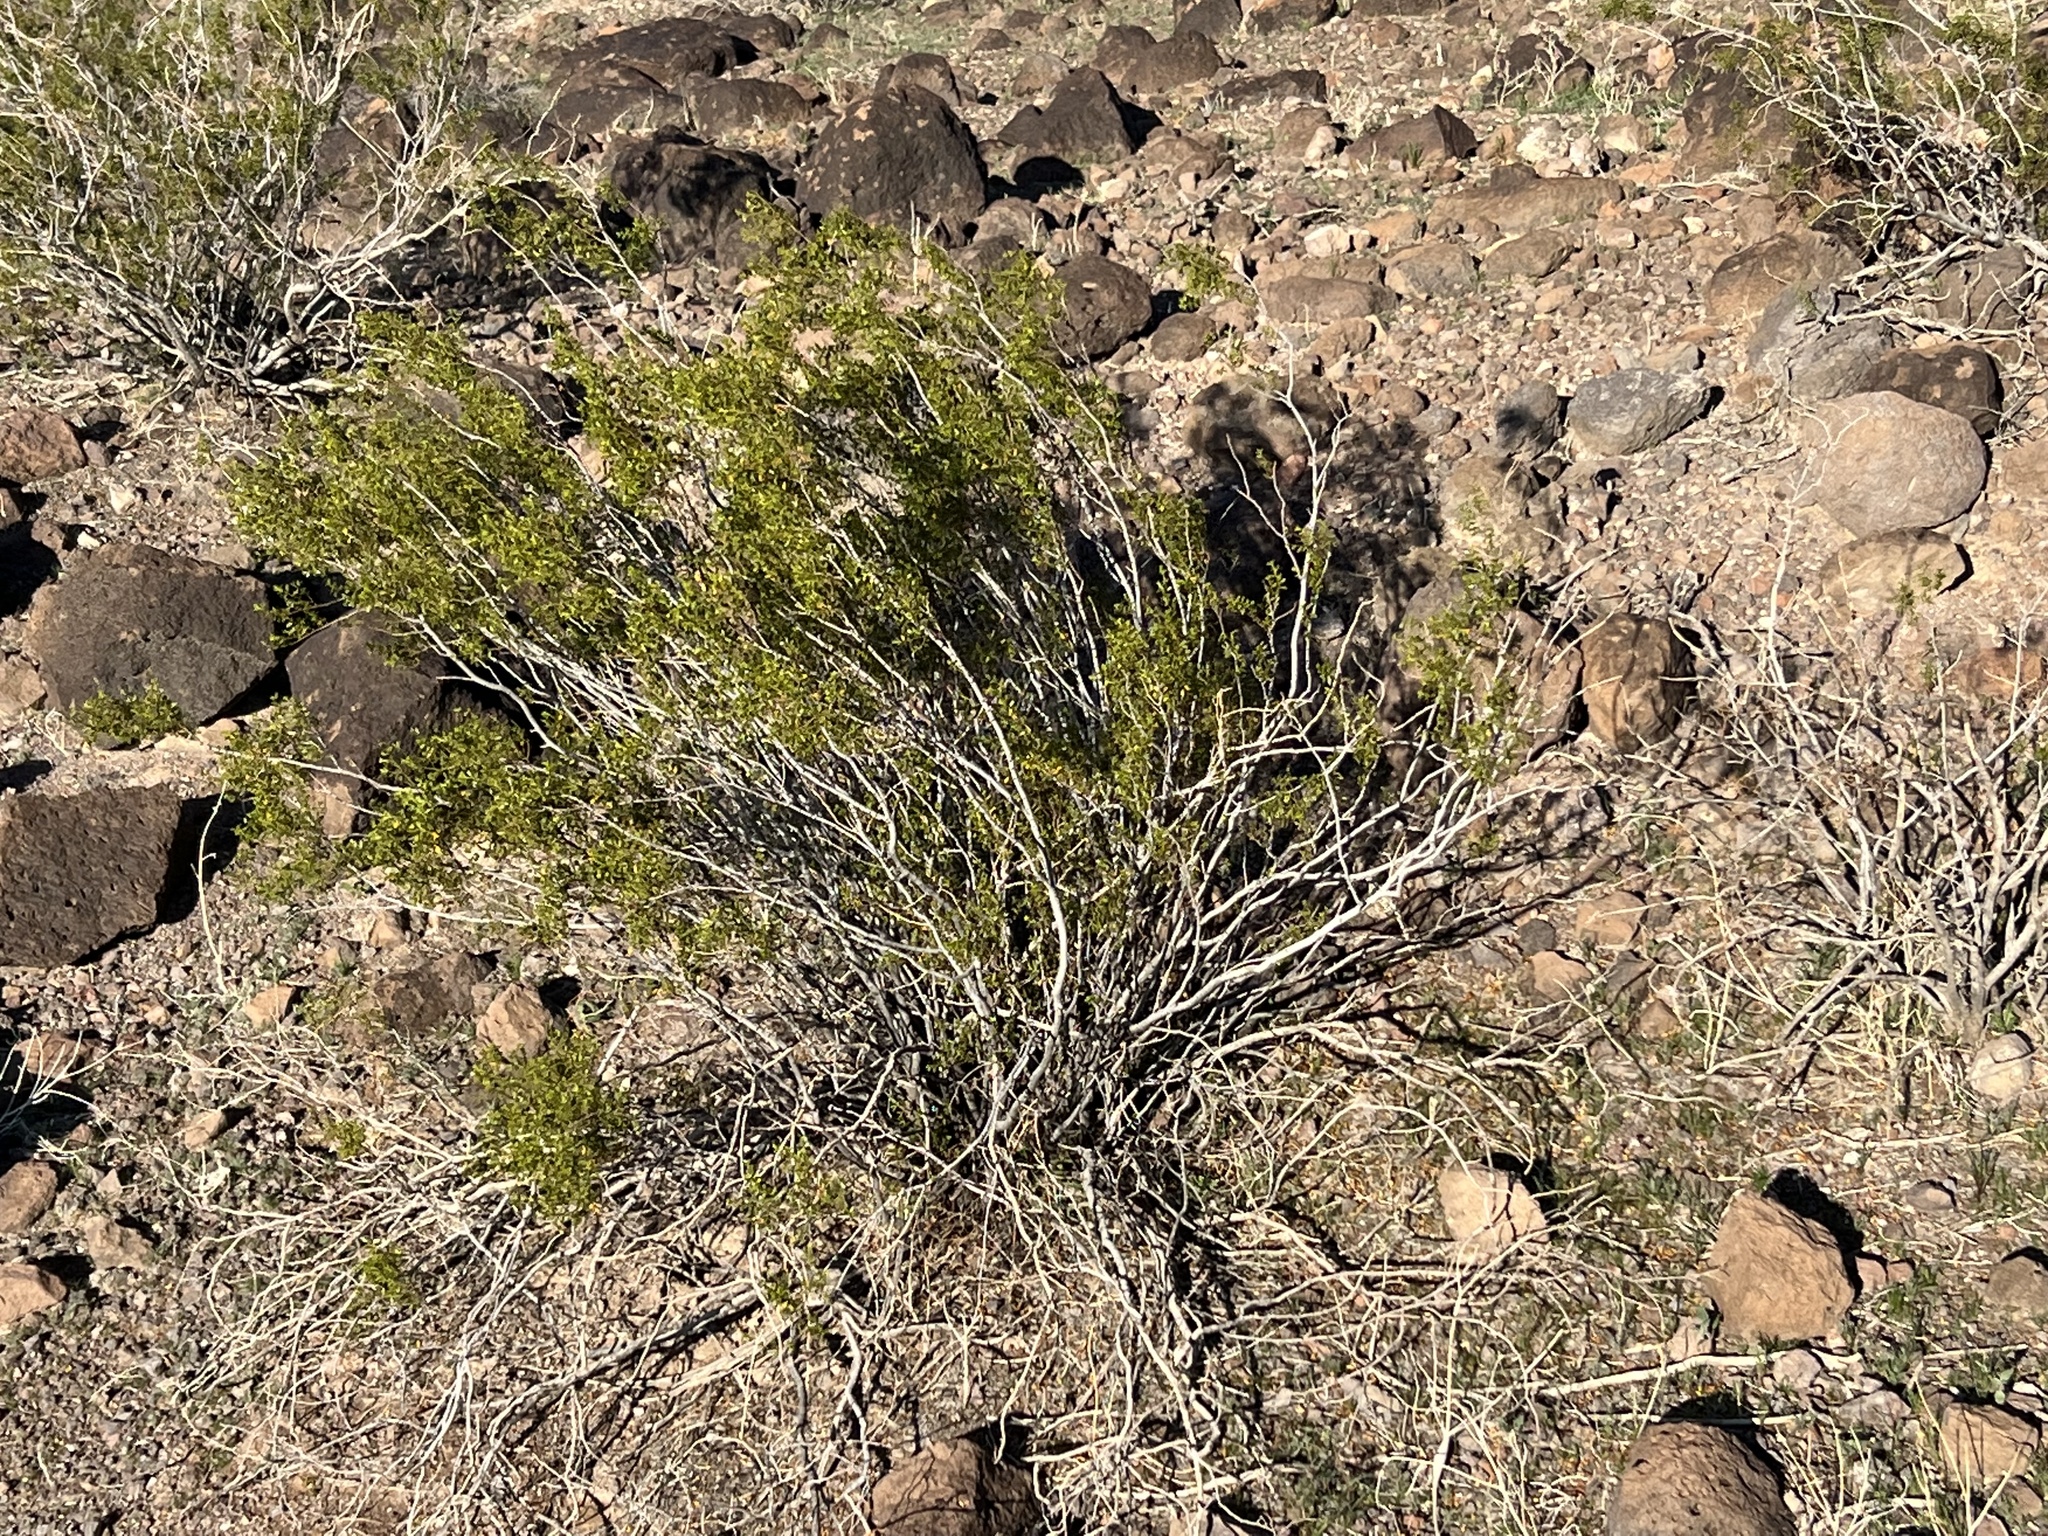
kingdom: Plantae
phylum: Tracheophyta
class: Magnoliopsida
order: Zygophyllales
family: Zygophyllaceae
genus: Larrea
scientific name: Larrea tridentata
